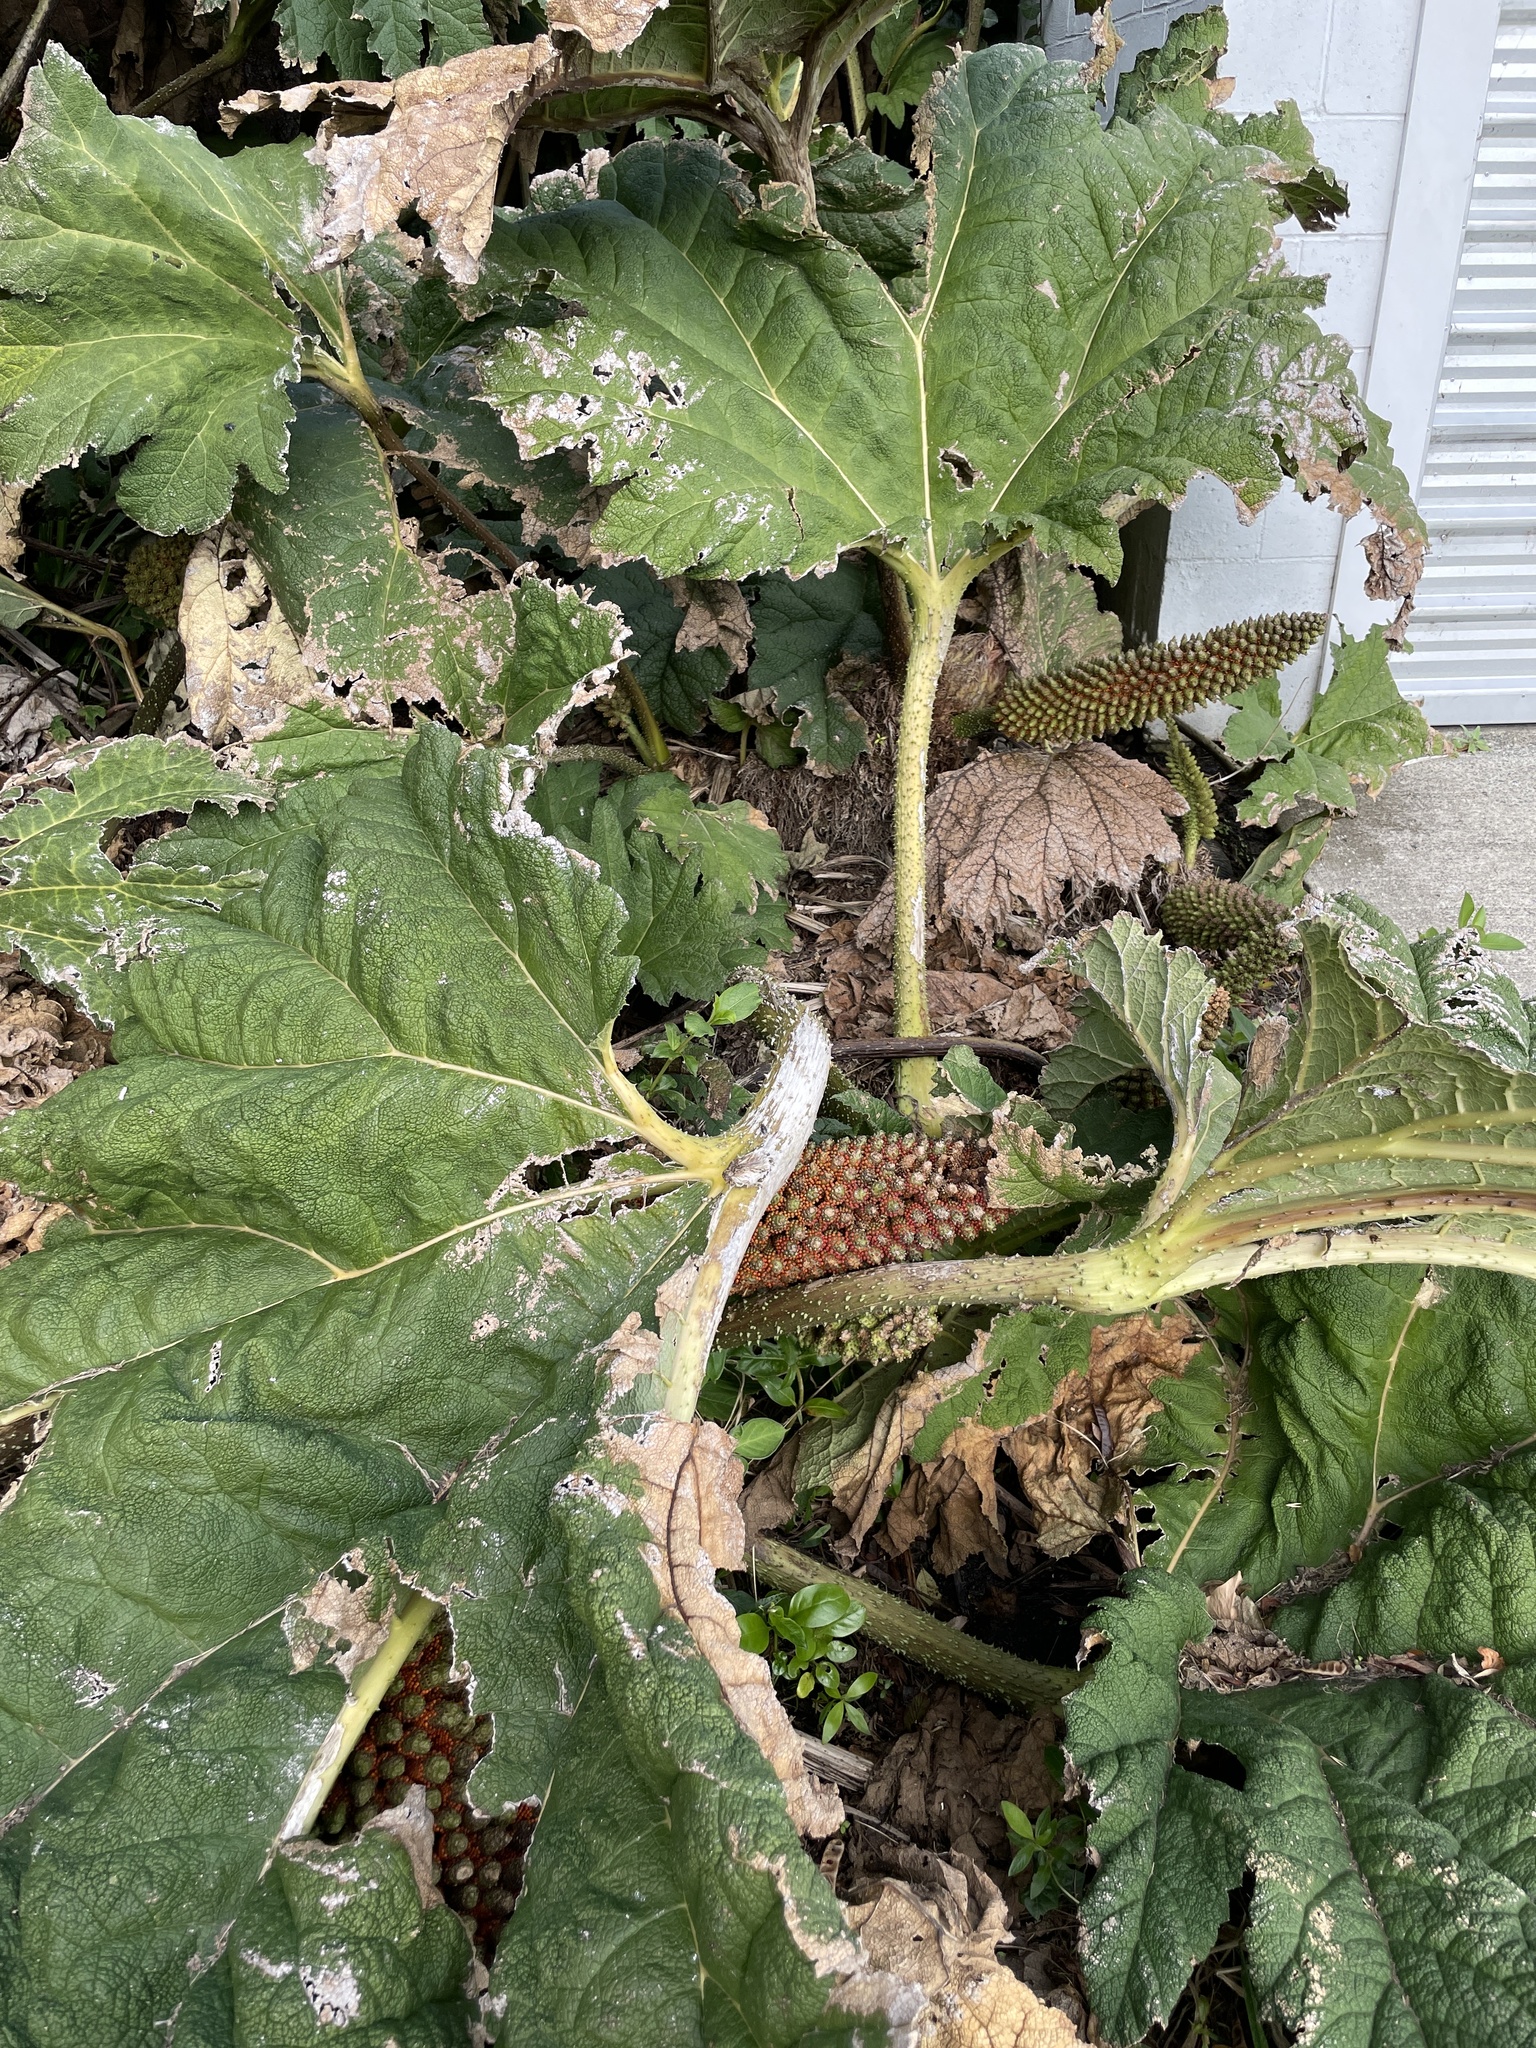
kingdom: Plantae
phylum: Tracheophyta
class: Magnoliopsida
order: Gunnerales
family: Gunneraceae
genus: Gunnera
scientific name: Gunnera tinctoria
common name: Giant-rhubarb
